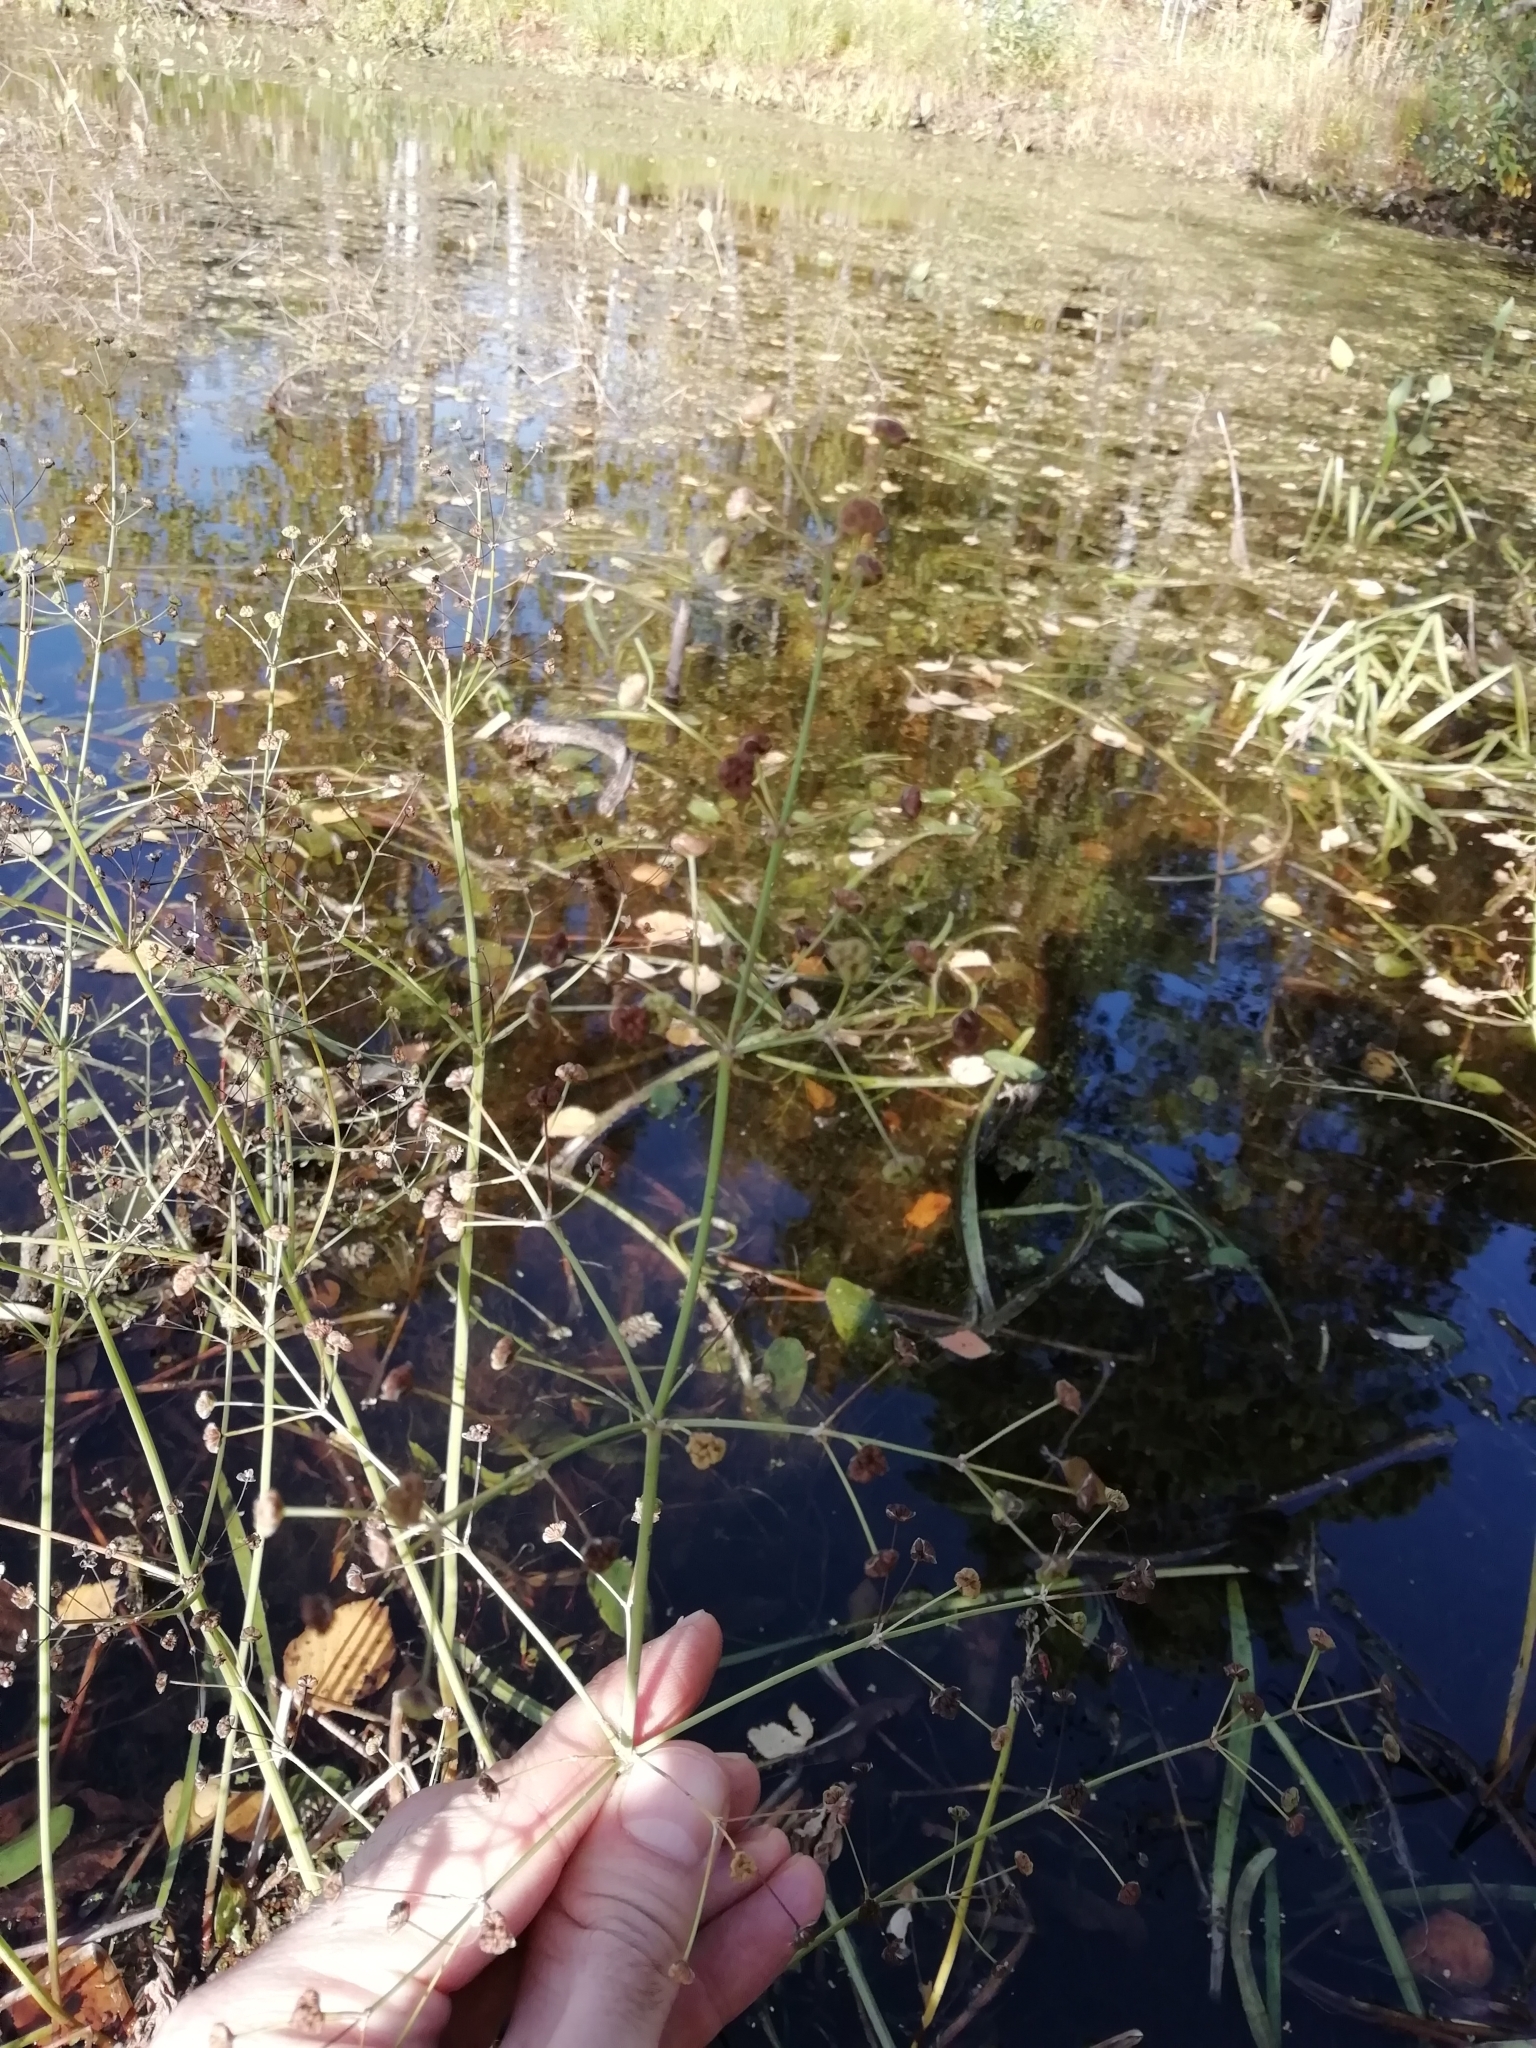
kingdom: Plantae
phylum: Tracheophyta
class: Liliopsida
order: Alismatales
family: Alismataceae
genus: Alisma
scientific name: Alisma plantago-aquatica
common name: Water-plantain
